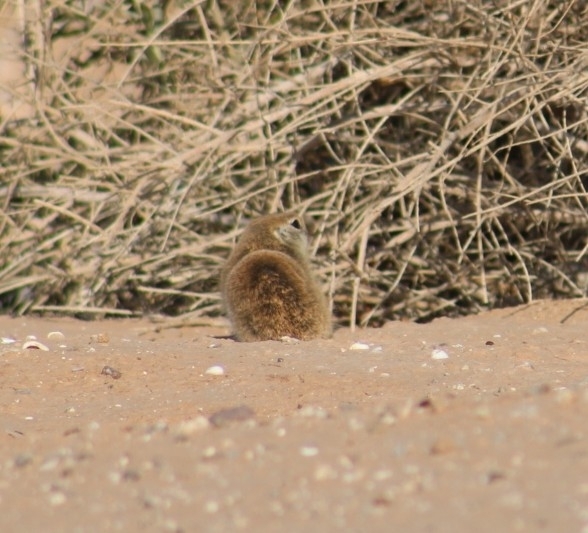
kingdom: Animalia
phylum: Chordata
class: Mammalia
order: Rodentia
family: Sciuridae
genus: Xerospermophilus
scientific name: Xerospermophilus tereticaudus
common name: Round-tailed ground squirrel
